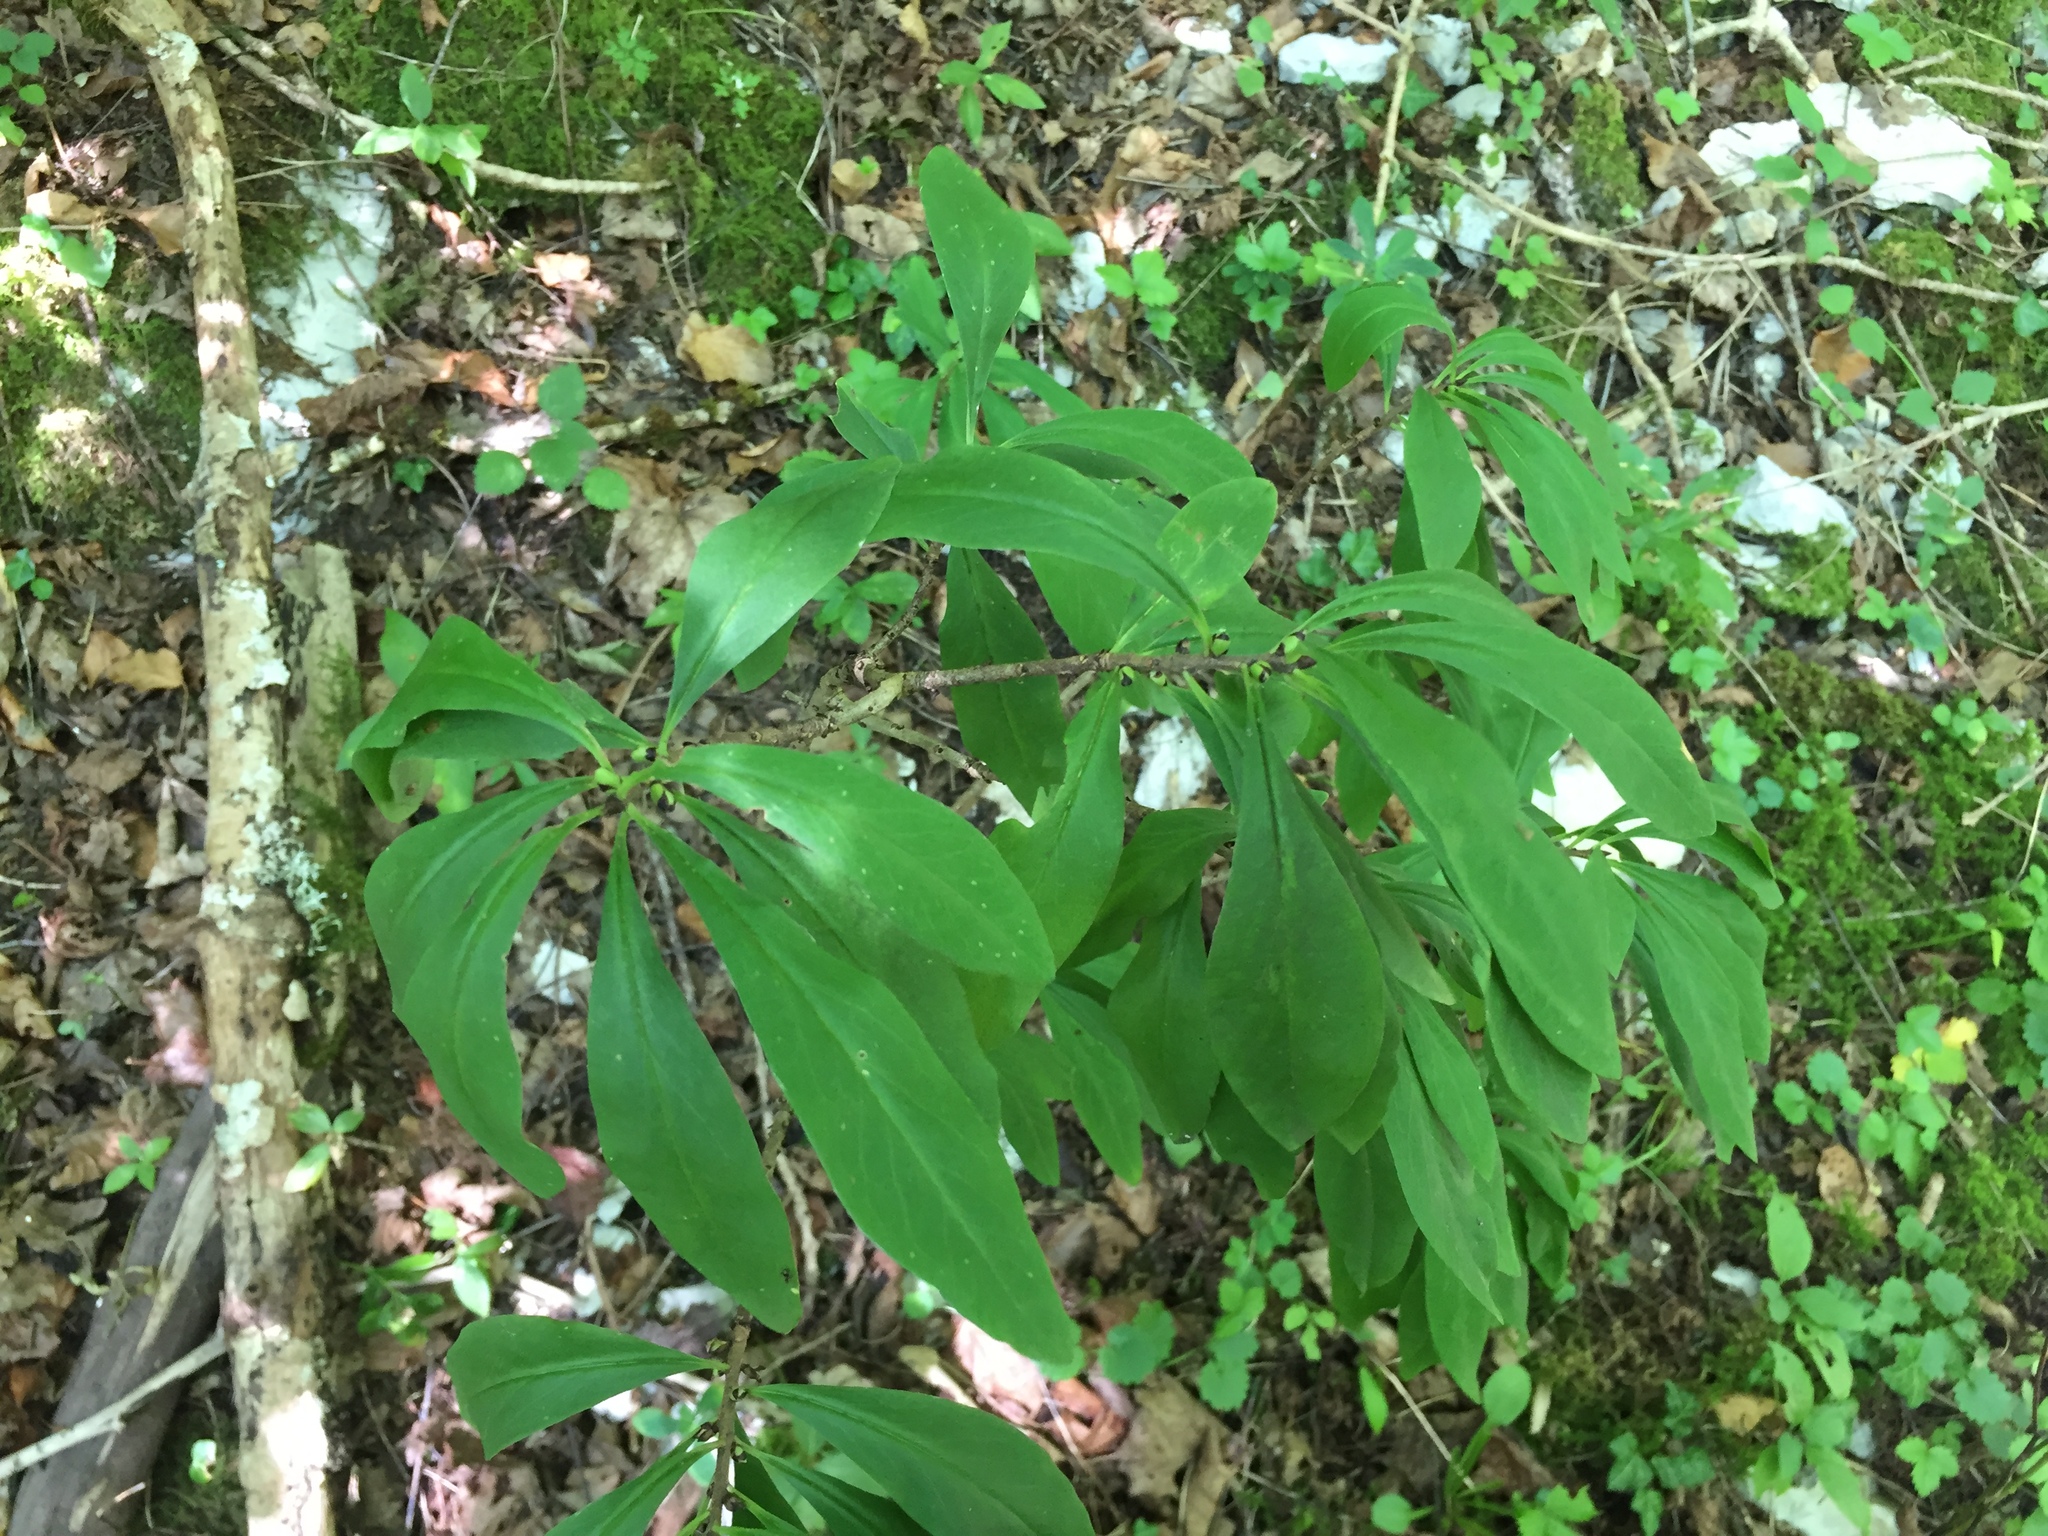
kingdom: Plantae
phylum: Tracheophyta
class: Magnoliopsida
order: Malvales
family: Thymelaeaceae
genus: Daphne
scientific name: Daphne mezereum
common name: Mezereon
